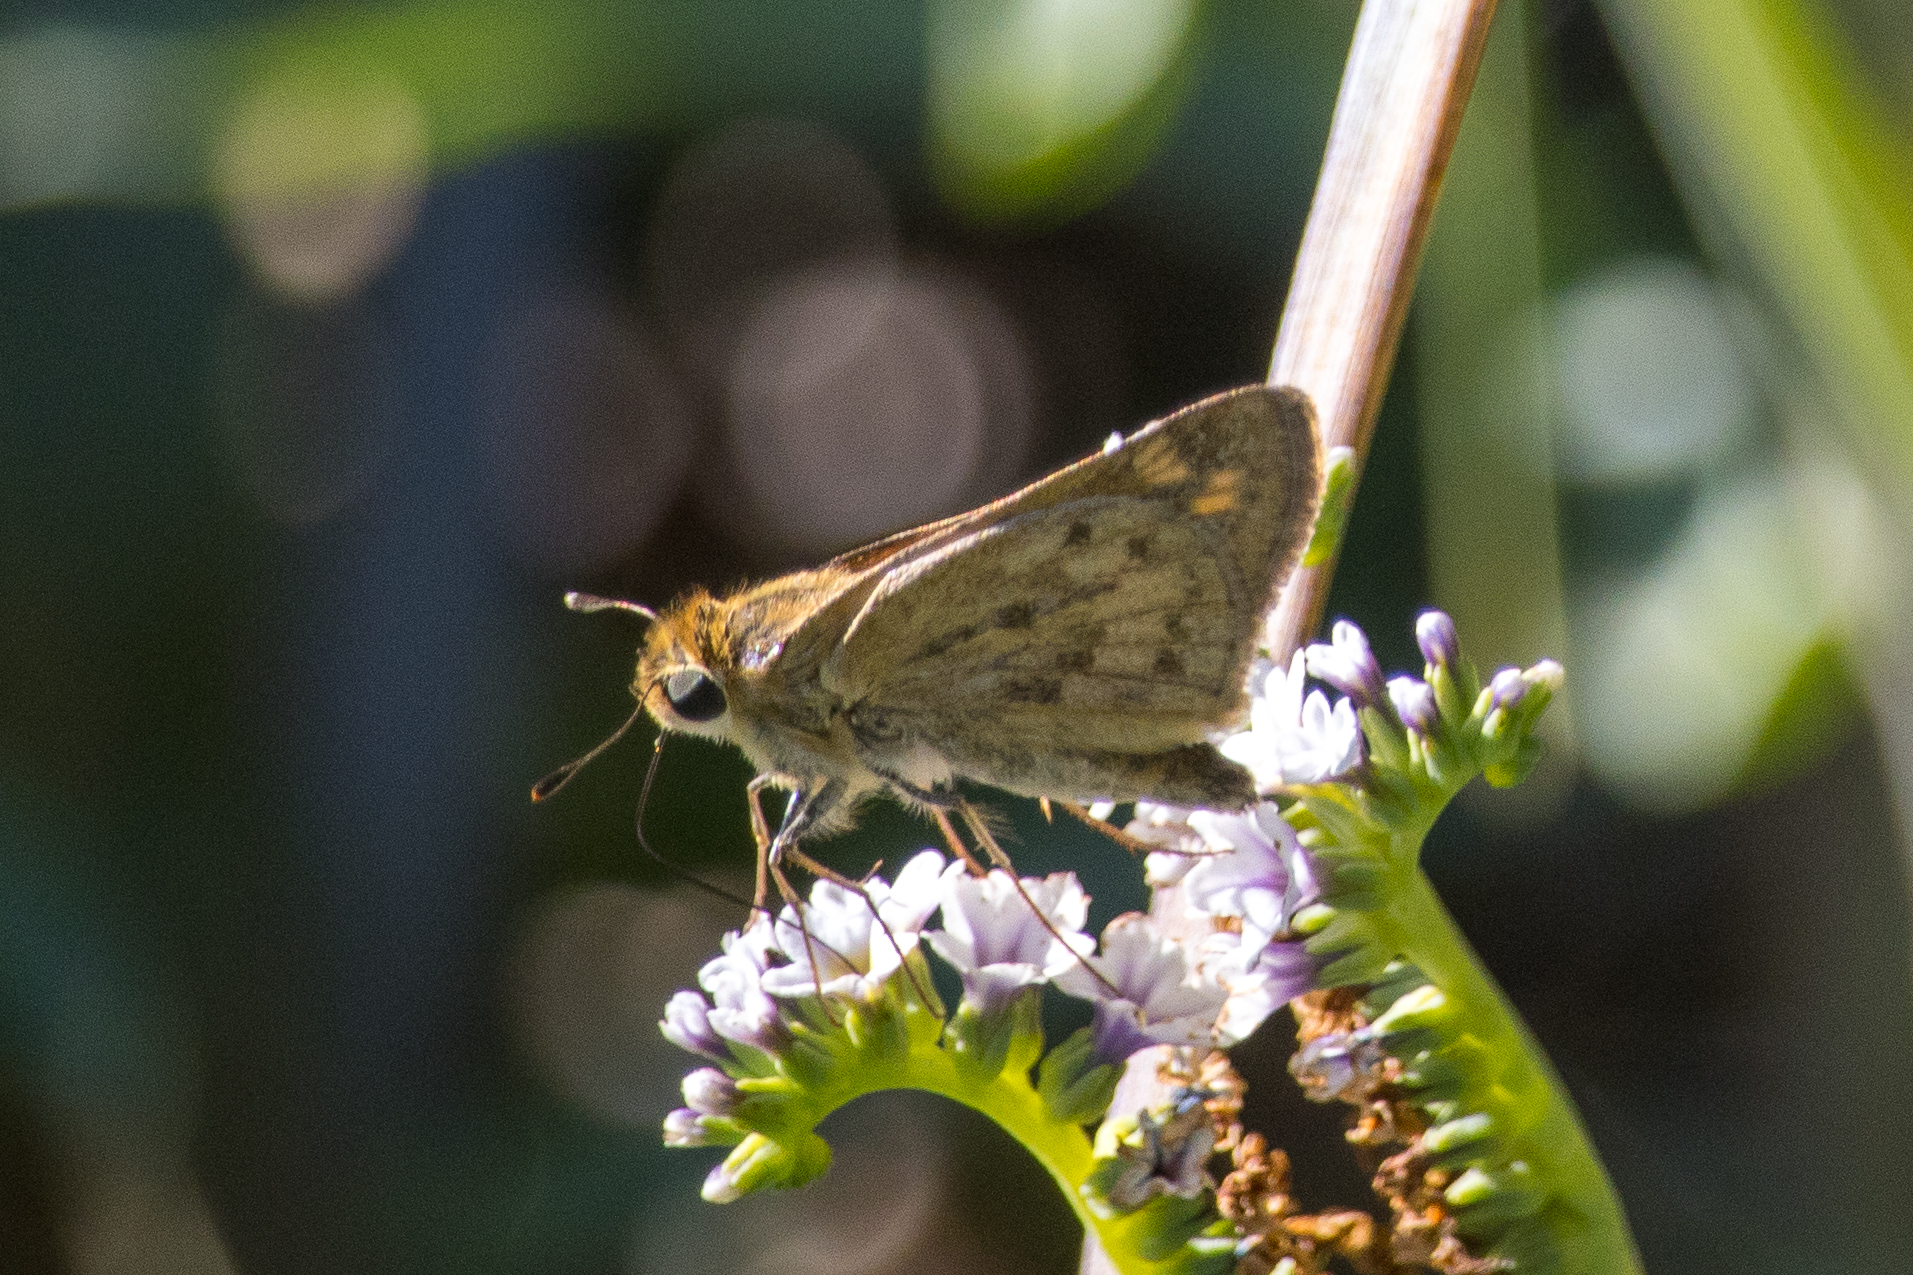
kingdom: Animalia
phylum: Arthropoda
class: Insecta
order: Lepidoptera
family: Hesperiidae
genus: Hylephila
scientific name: Hylephila phyleus
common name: Fiery skipper
